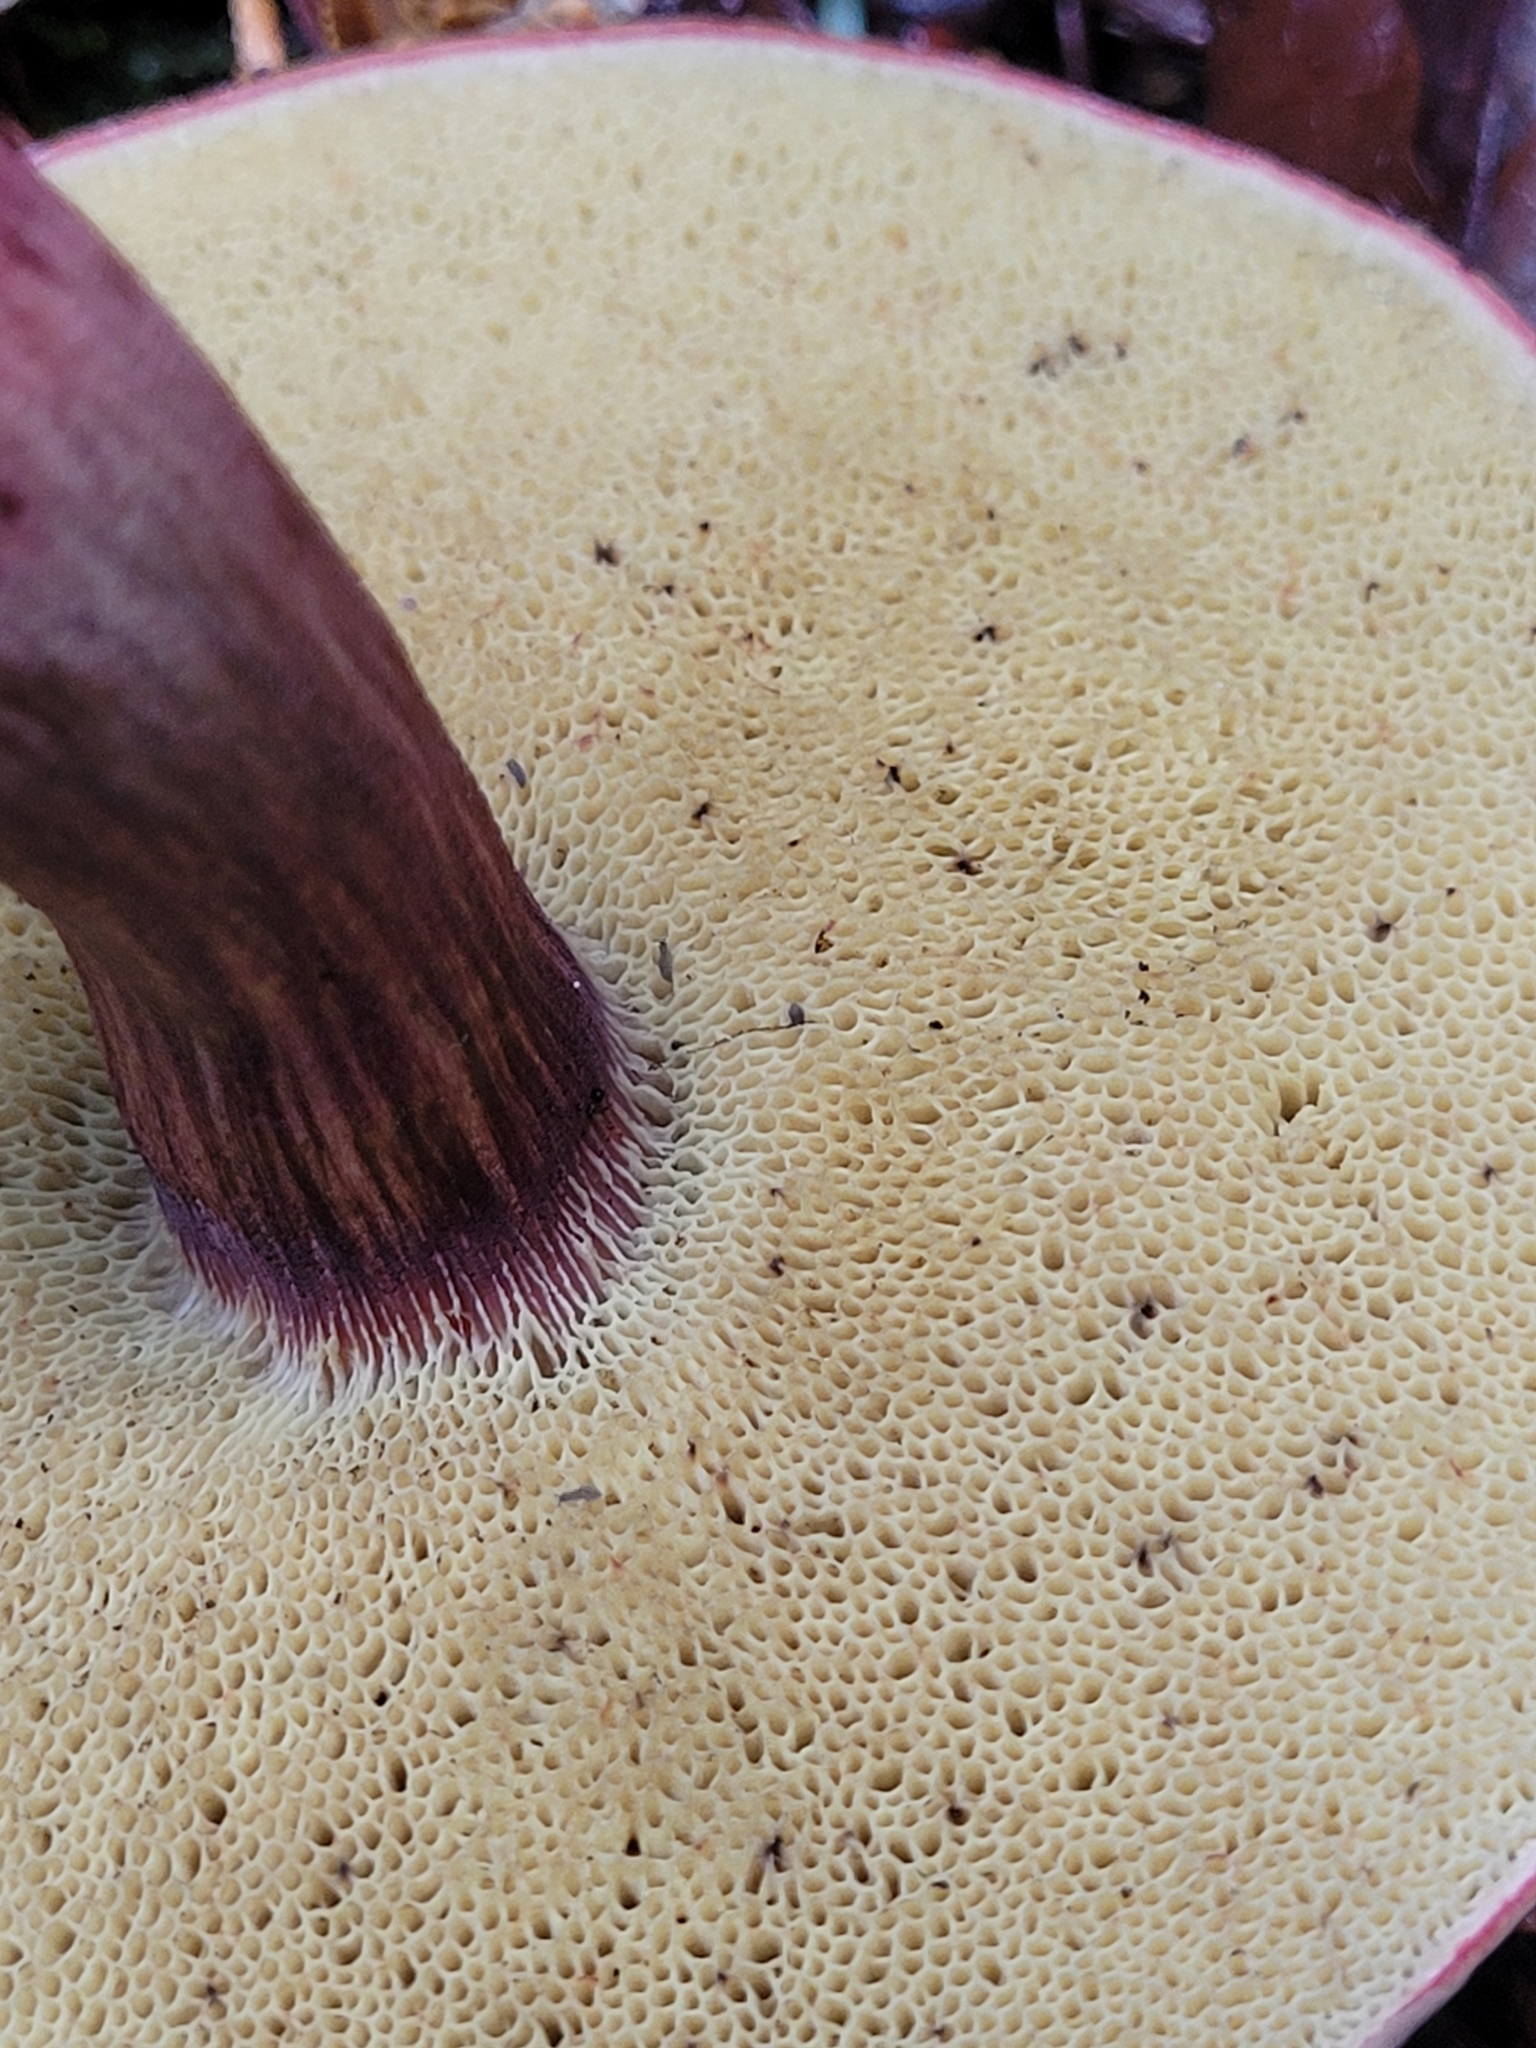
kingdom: Fungi
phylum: Basidiomycota
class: Agaricomycetes
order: Boletales
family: Boletaceae
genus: Xerocomellus
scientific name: Xerocomellus zelleri
